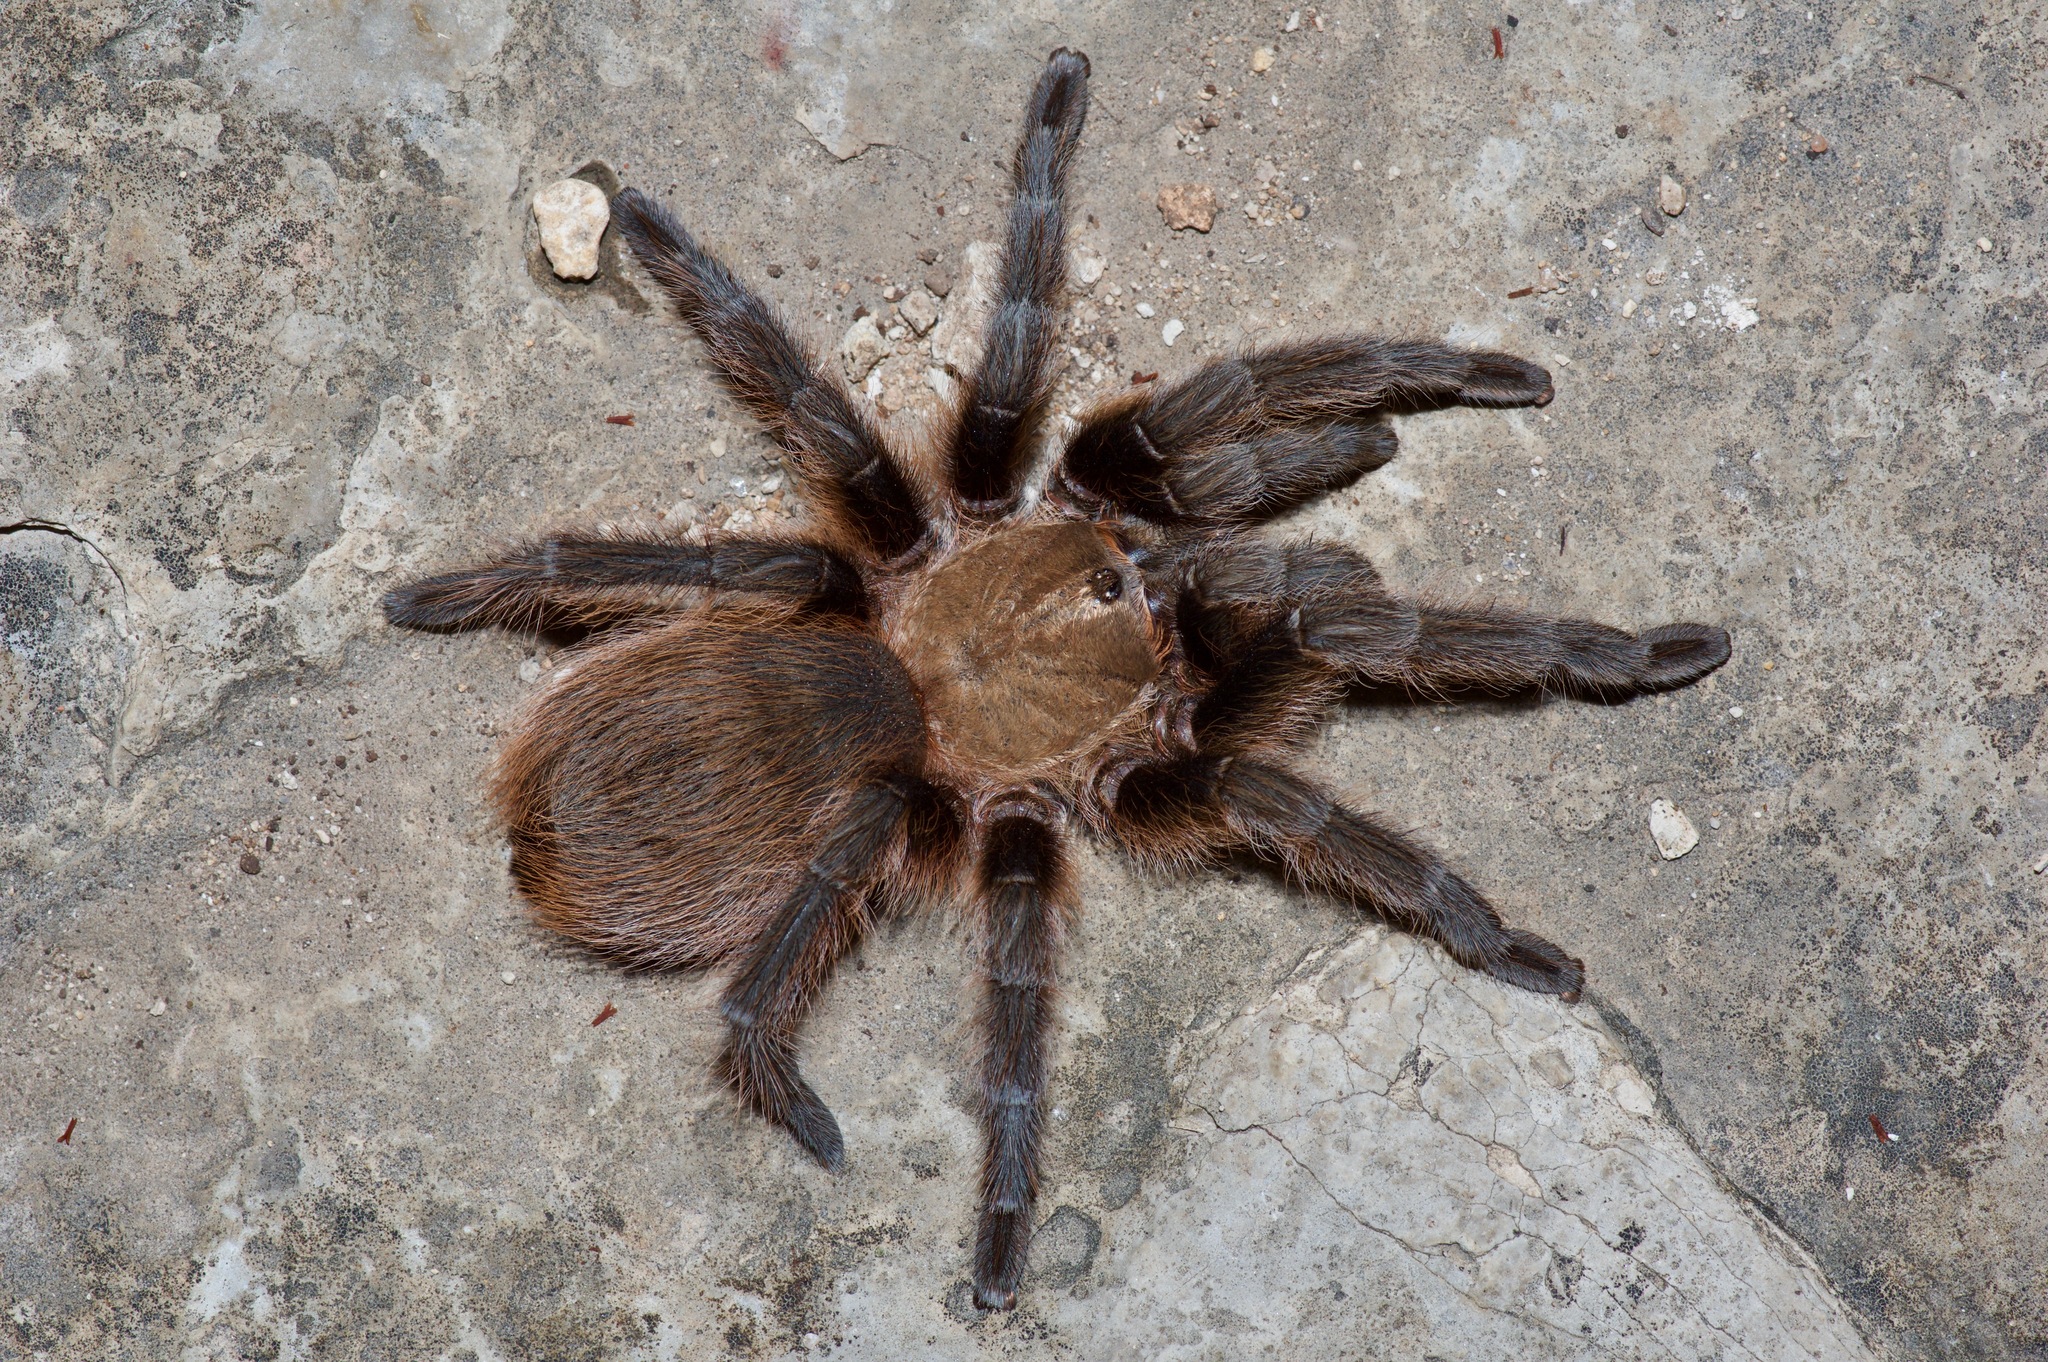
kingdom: Animalia
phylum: Arthropoda
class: Arachnida
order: Araneae
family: Theraphosidae
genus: Aphonopelma
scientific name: Aphonopelma hentzi
